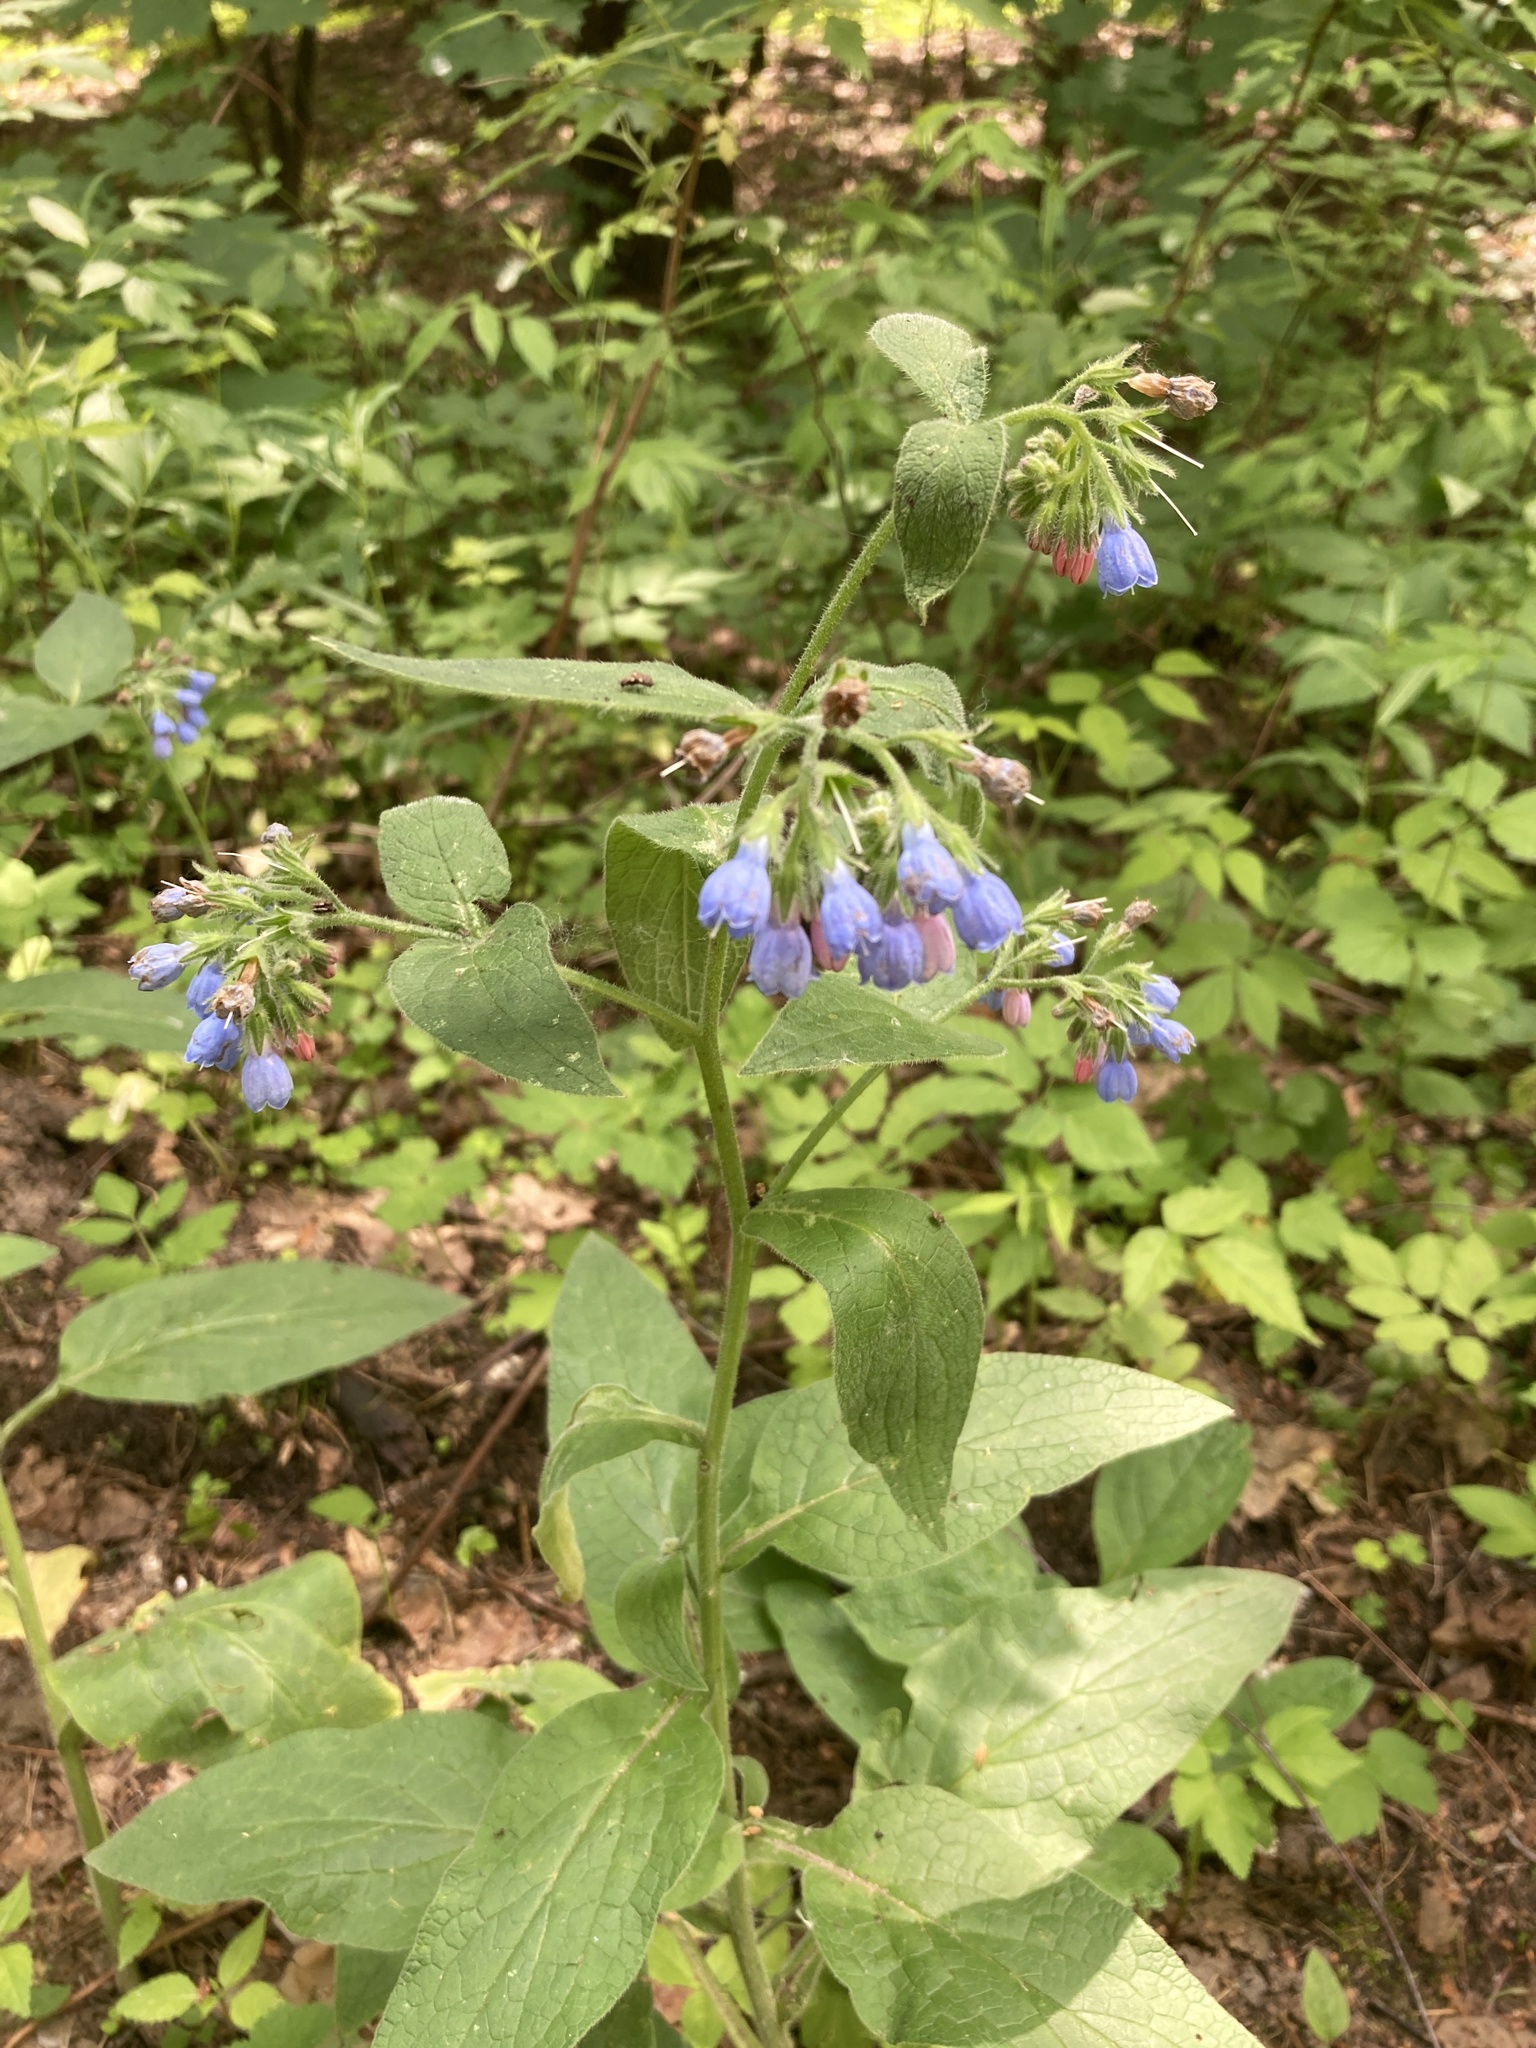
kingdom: Plantae
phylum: Tracheophyta
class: Magnoliopsida
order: Boraginales
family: Boraginaceae
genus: Symphytum
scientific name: Symphytum caucasicum
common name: Caucasian comfrey
